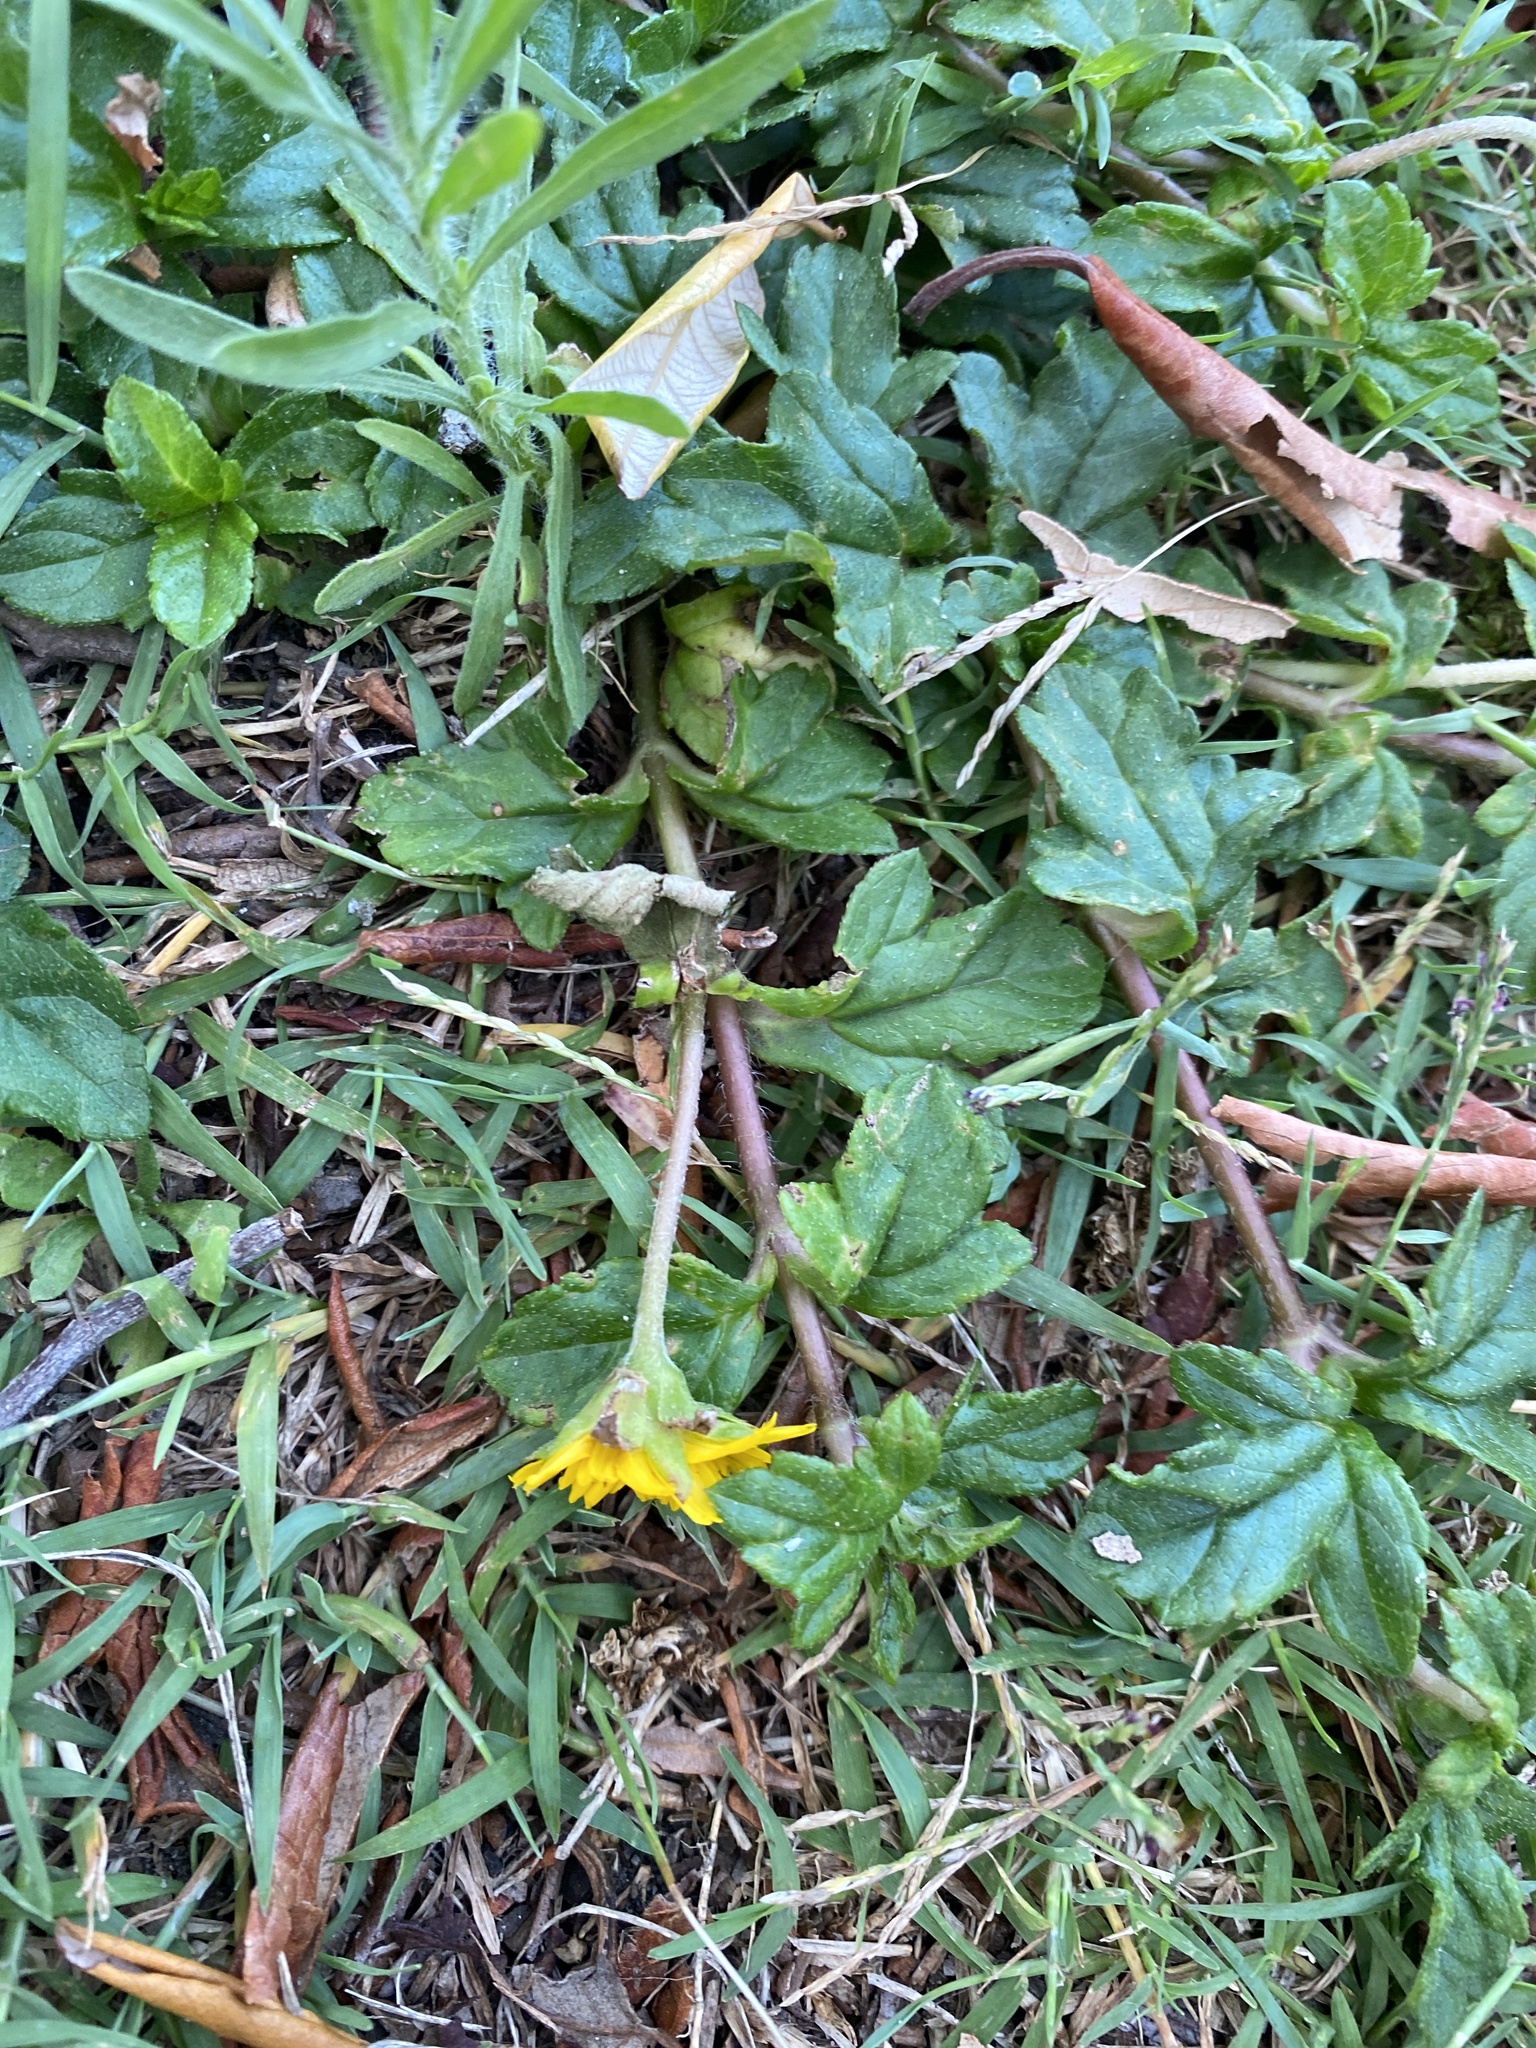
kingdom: Plantae
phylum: Tracheophyta
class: Magnoliopsida
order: Asterales
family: Asteraceae
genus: Sphagneticola
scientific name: Sphagneticola trilobata
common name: Bay biscayne creeping-oxeye
